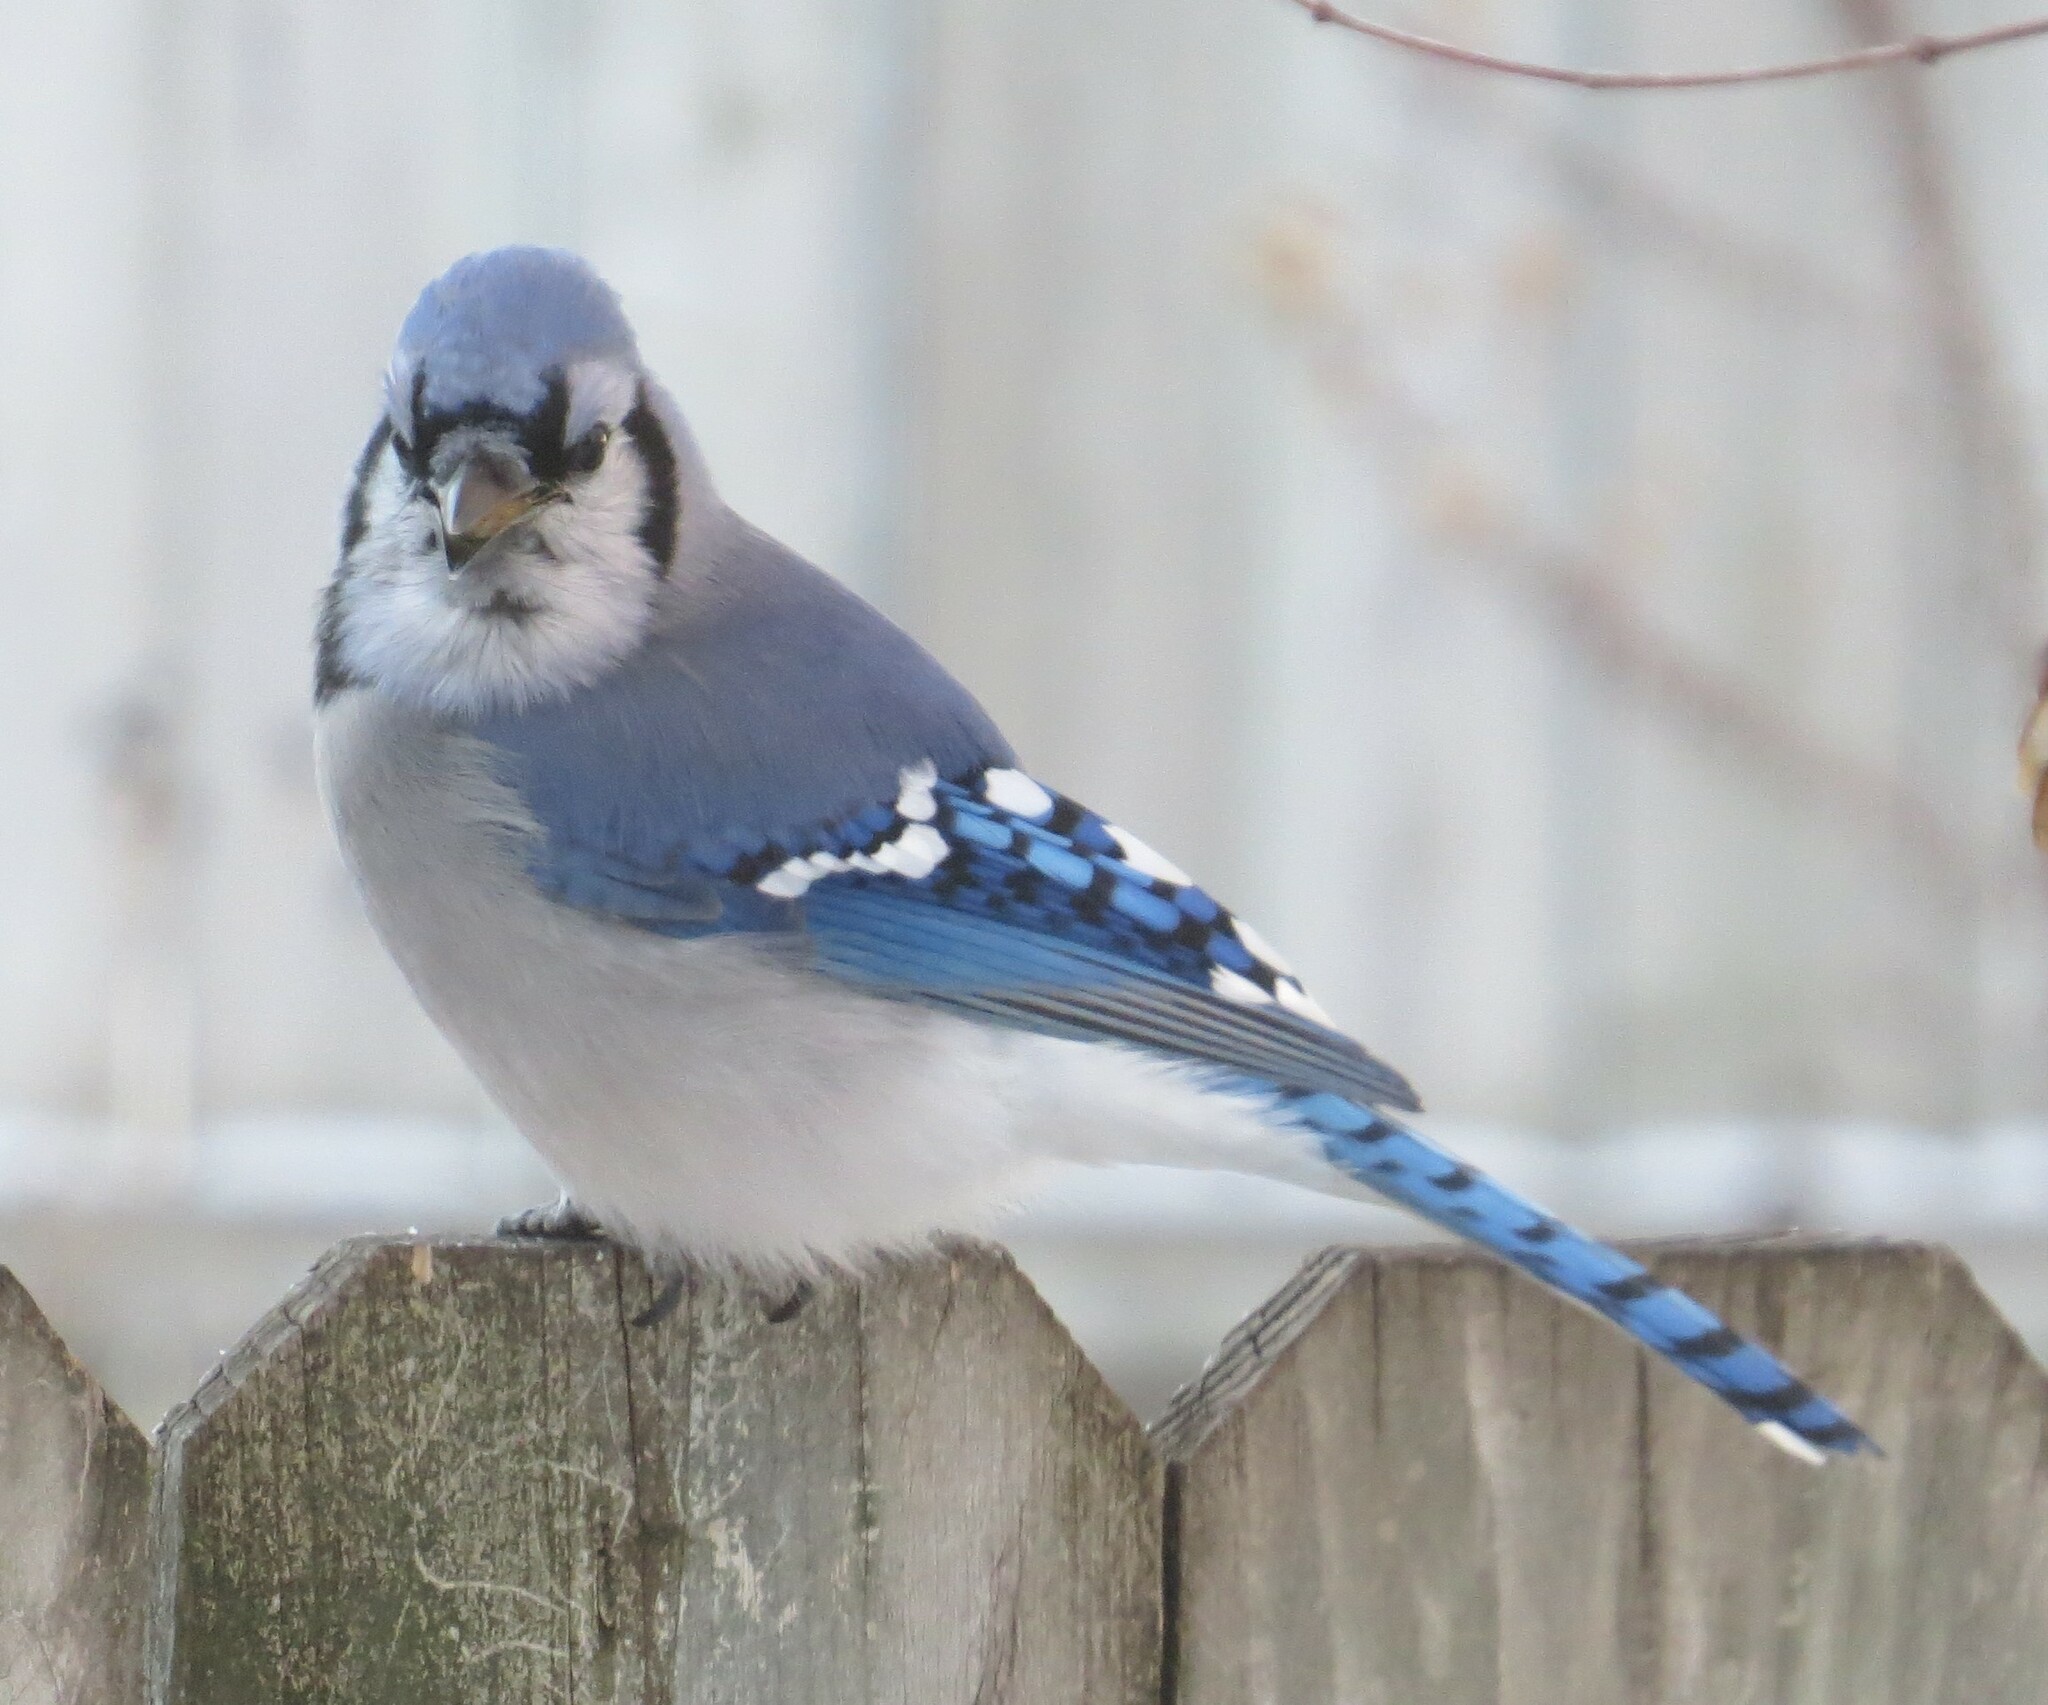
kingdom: Animalia
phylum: Chordata
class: Aves
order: Passeriformes
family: Corvidae
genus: Cyanocitta
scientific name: Cyanocitta cristata
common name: Blue jay
